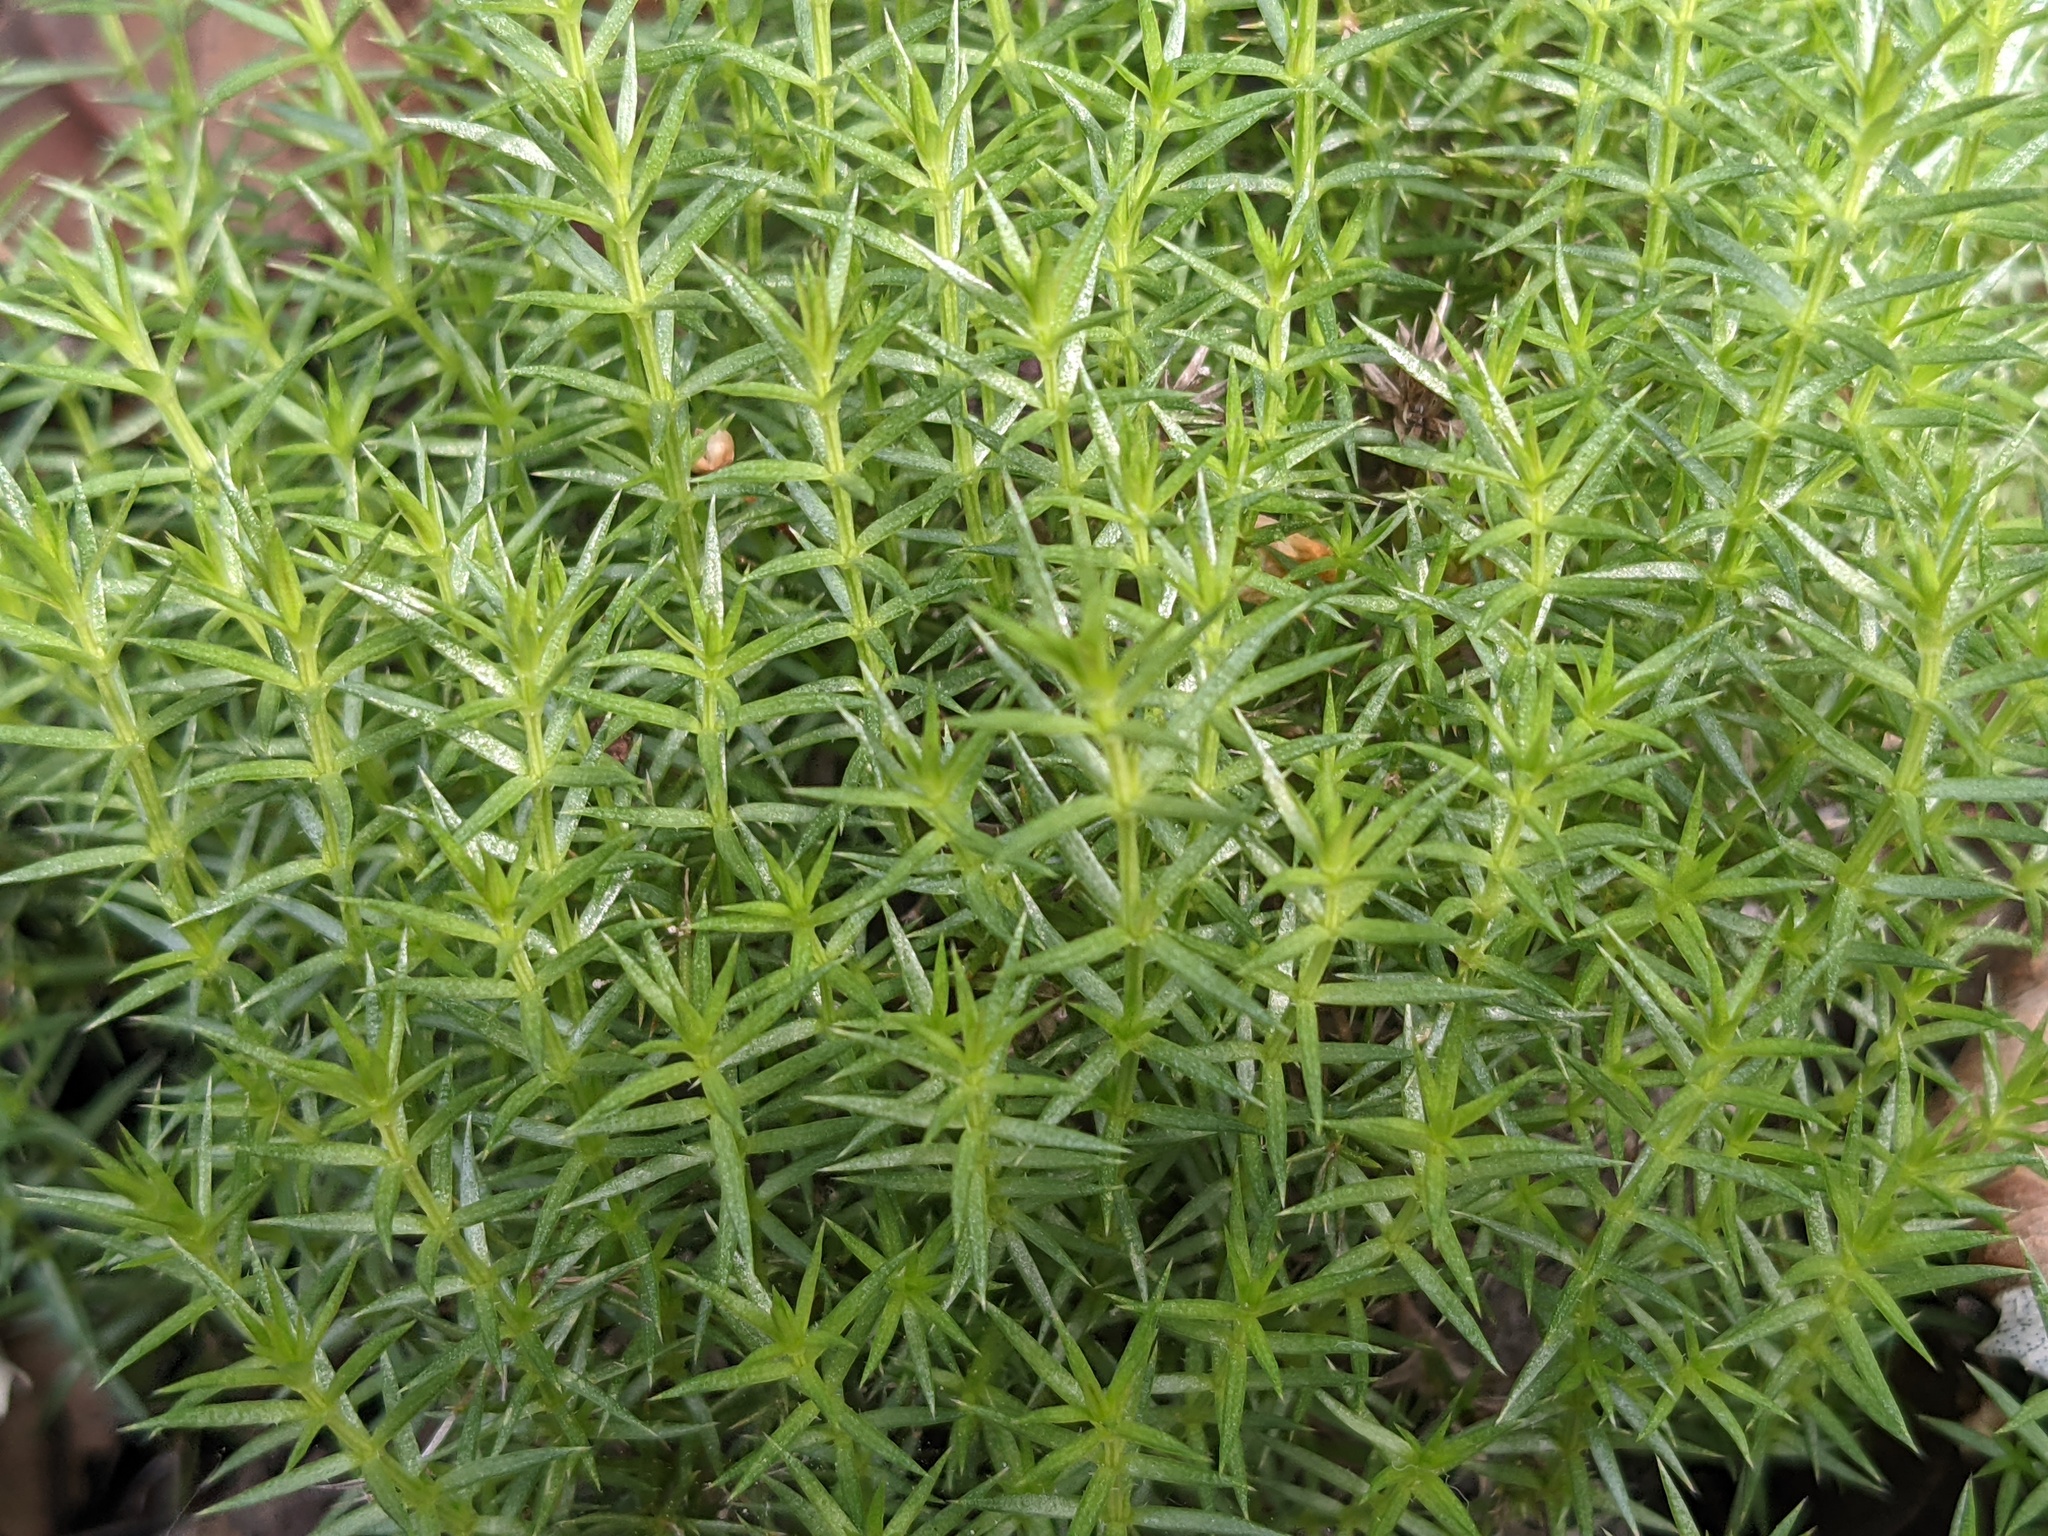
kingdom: Plantae
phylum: Tracheophyta
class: Magnoliopsida
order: Gentianales
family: Rubiaceae
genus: Galium
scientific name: Galium andrewsii
